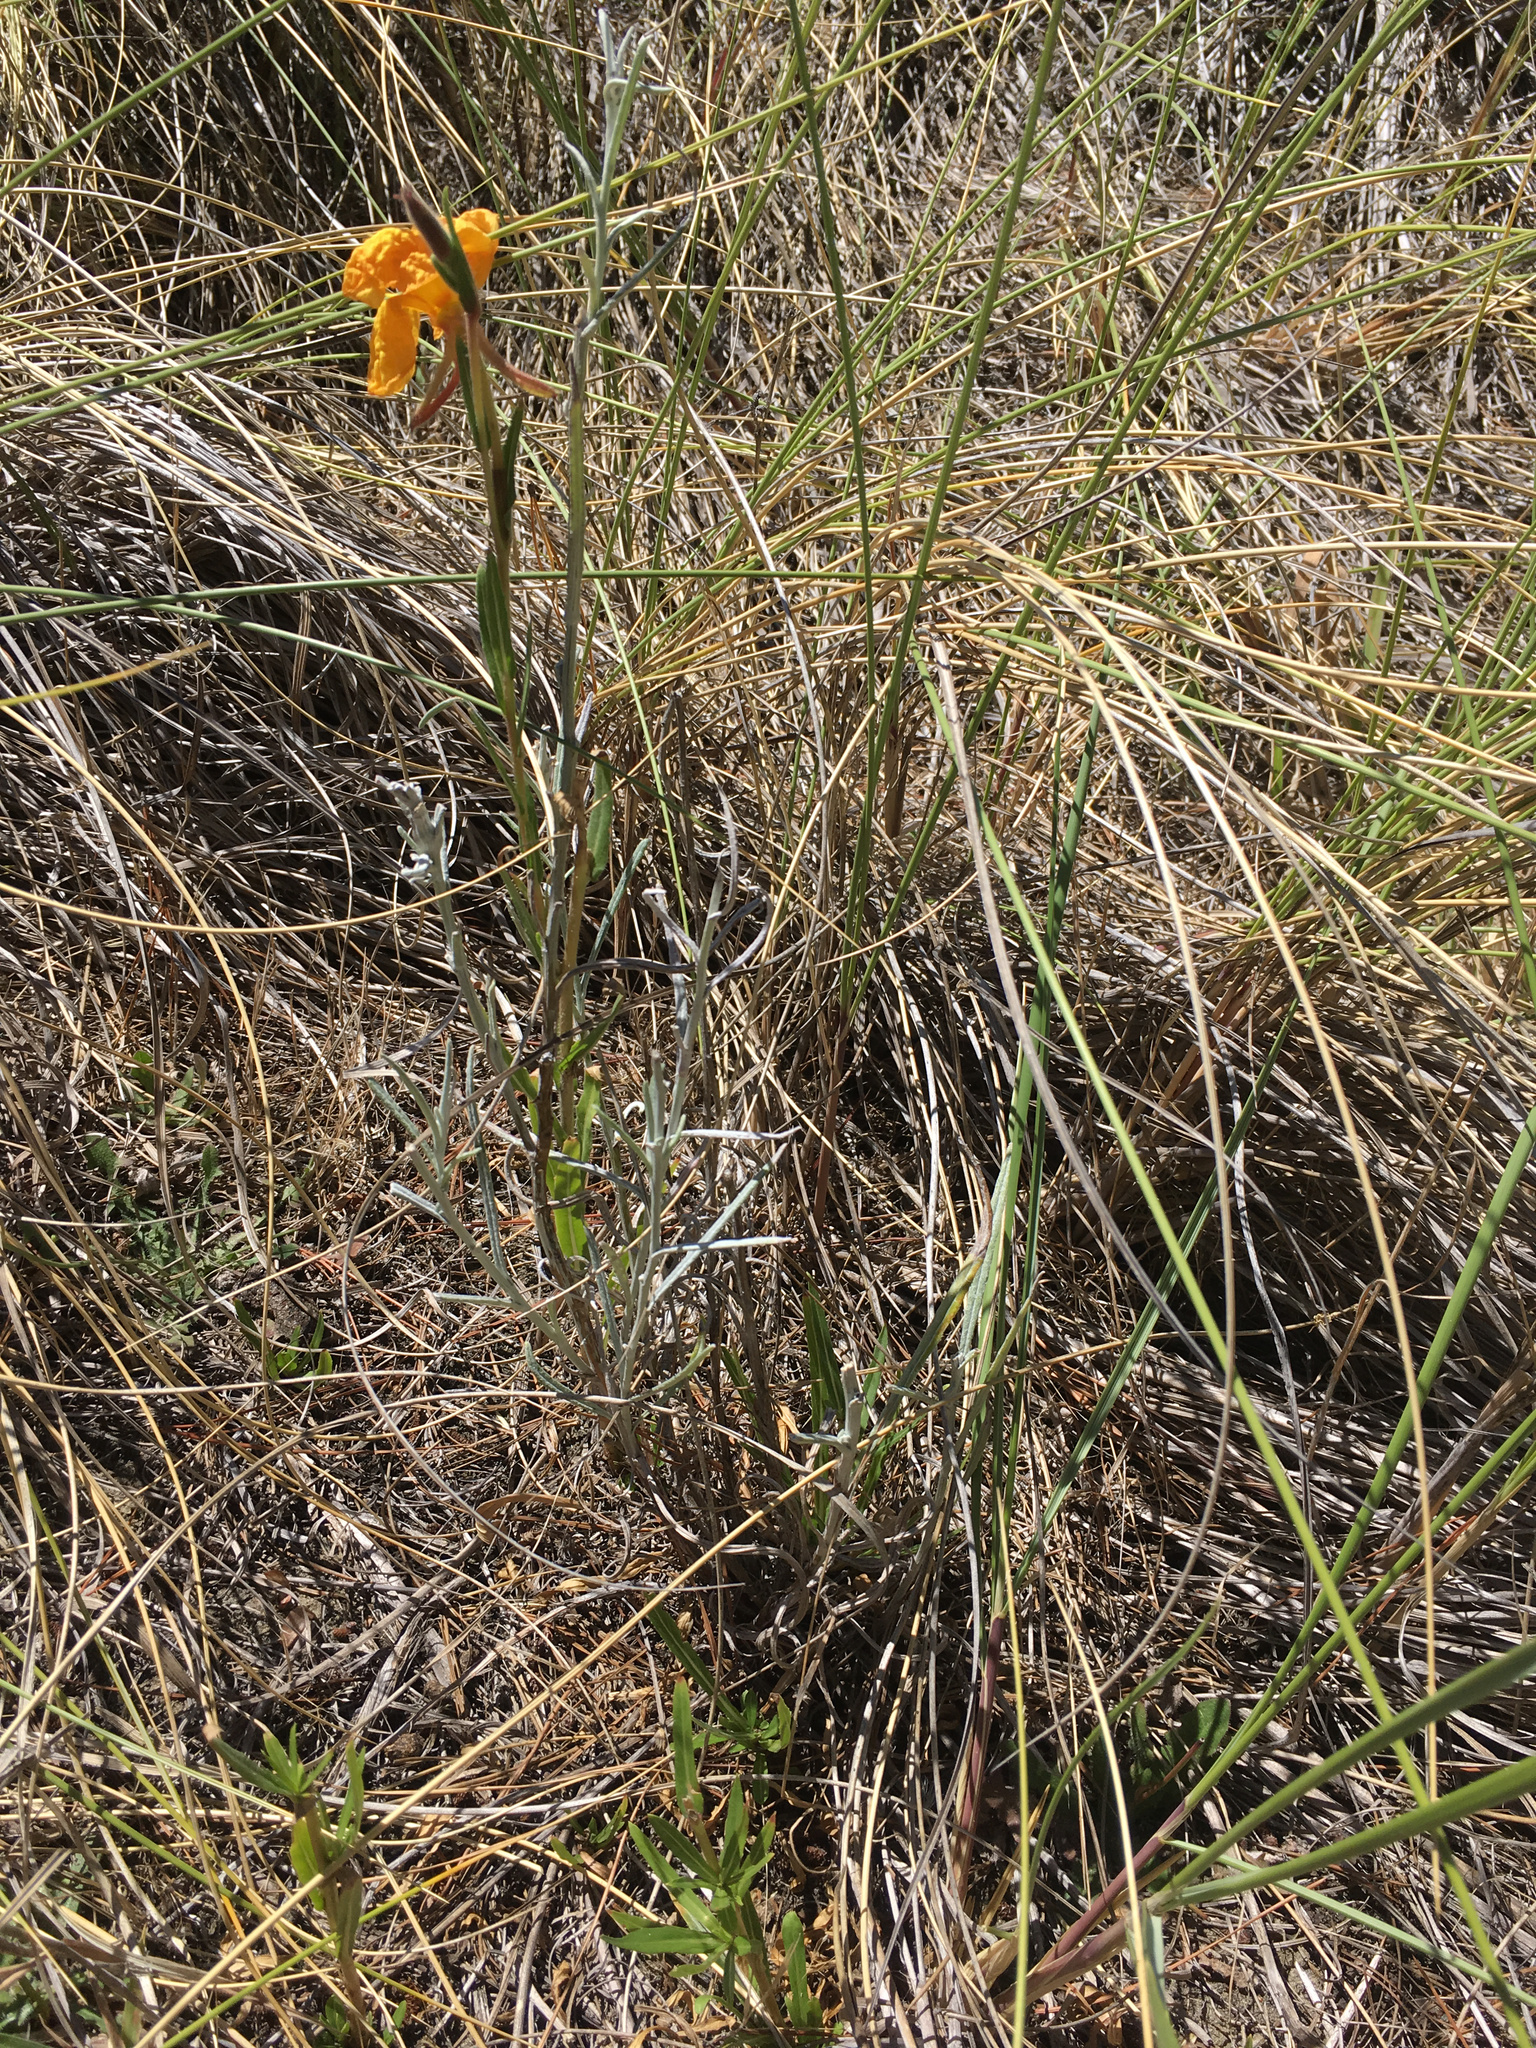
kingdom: Plantae
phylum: Tracheophyta
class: Magnoliopsida
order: Asterales
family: Asteraceae
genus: Senecio
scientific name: Senecio quadridentatus
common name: Cotton fireweed
